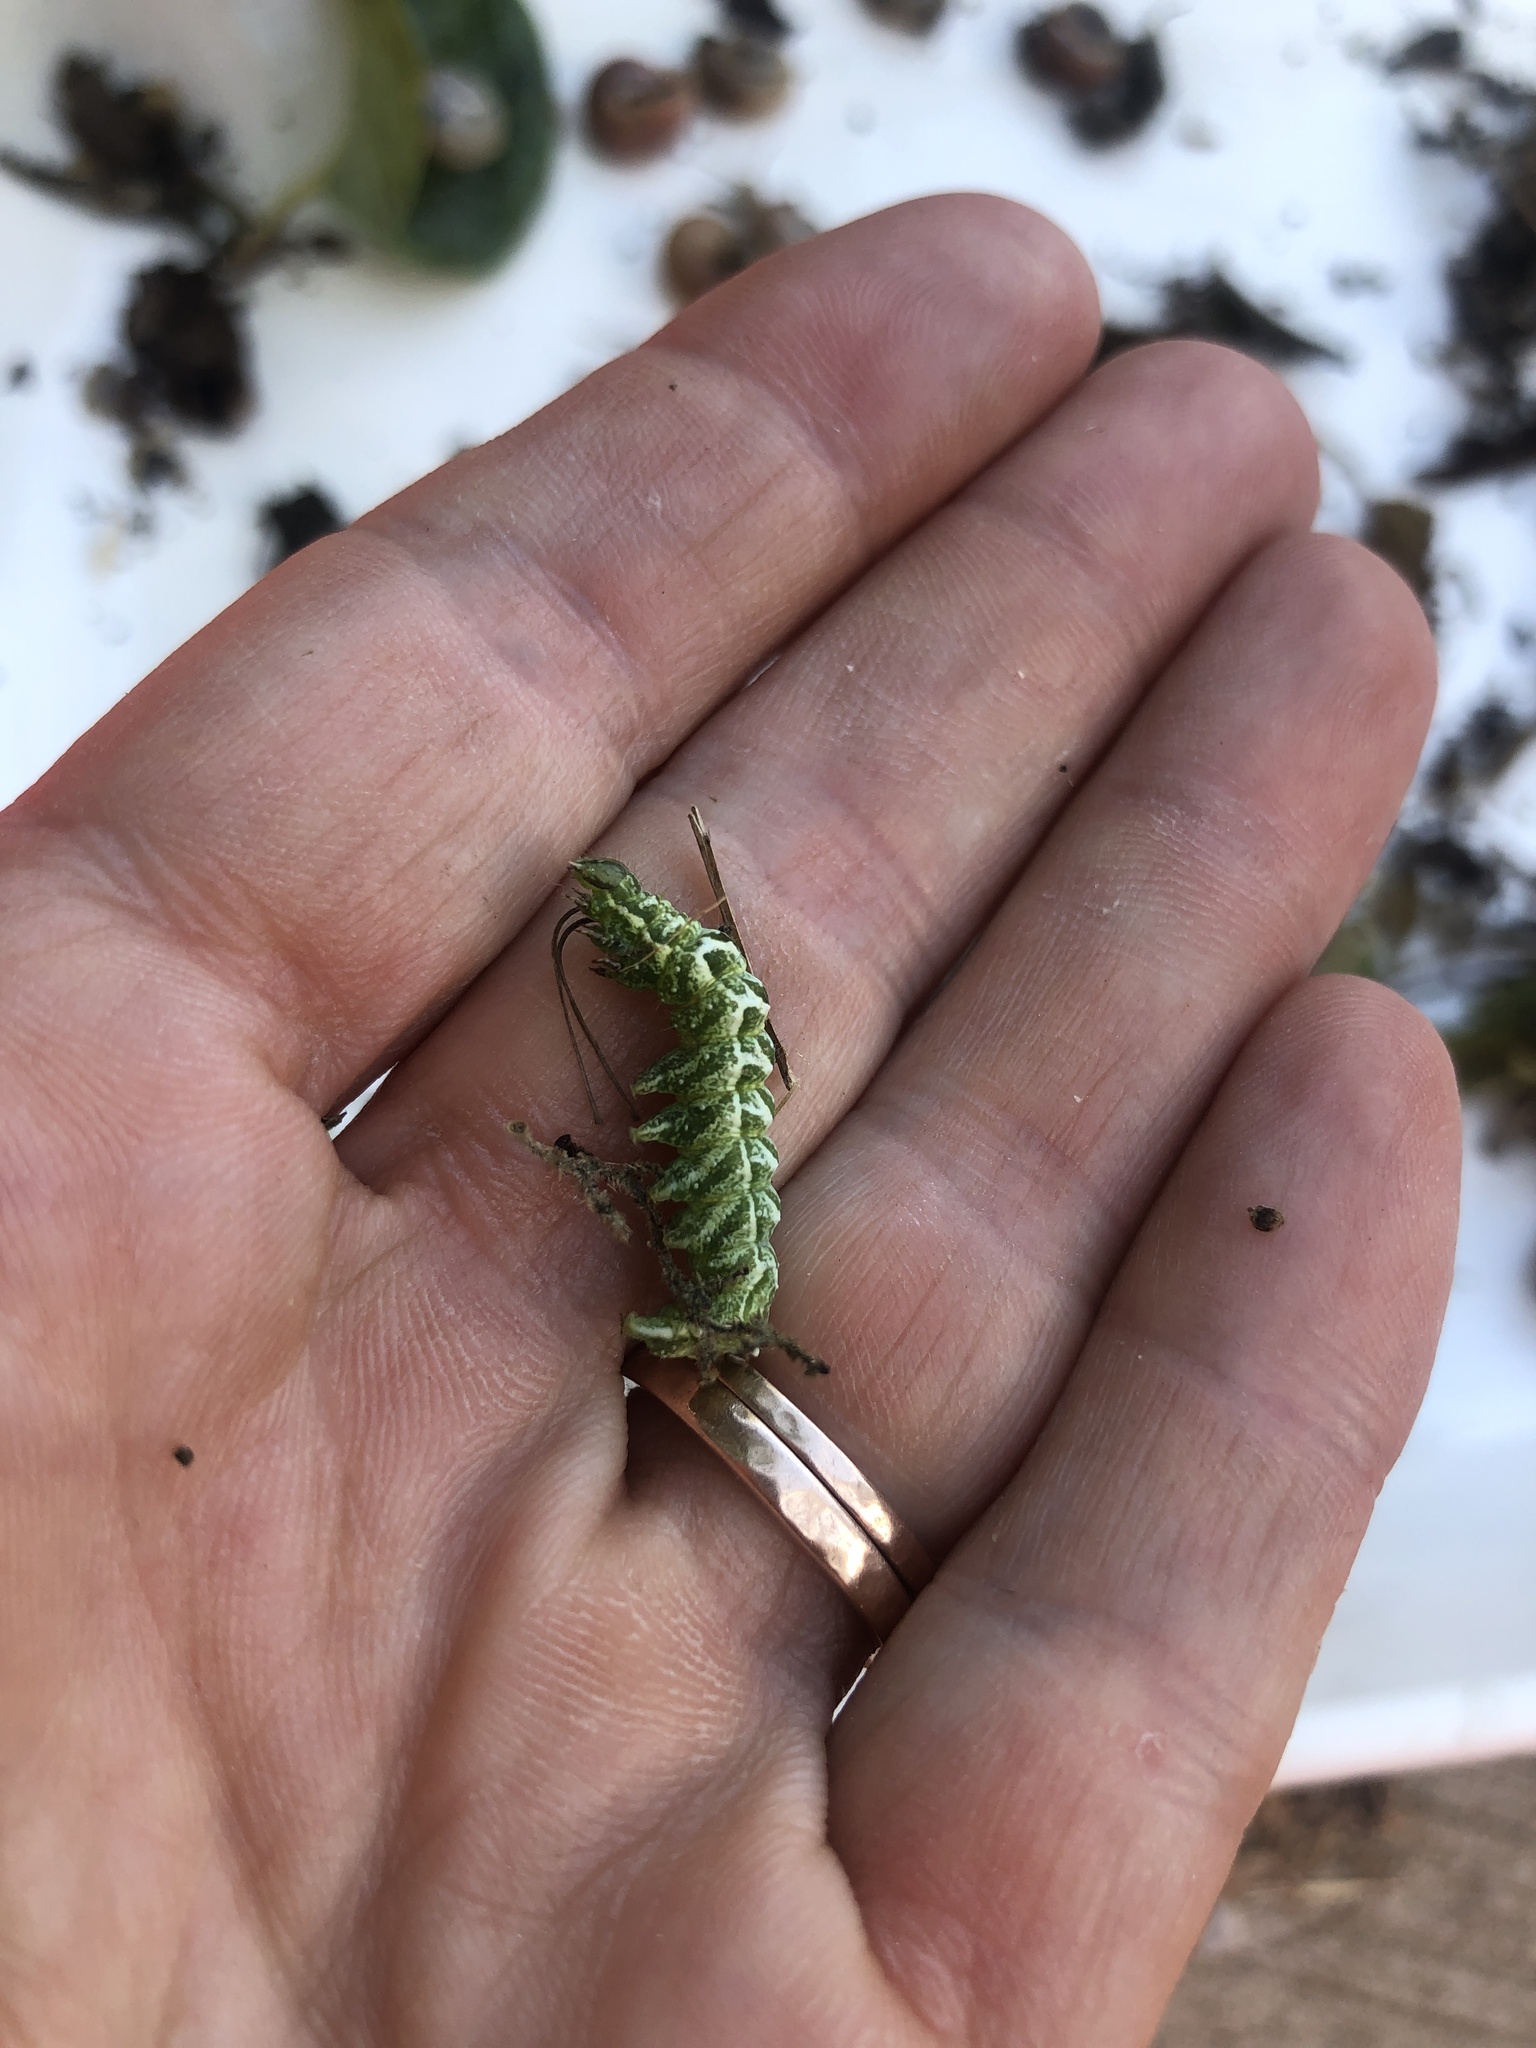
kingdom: Animalia
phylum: Arthropoda
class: Insecta
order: Lepidoptera
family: Noctuidae
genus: Abrostola
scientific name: Abrostola tripartita
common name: Spectacle
